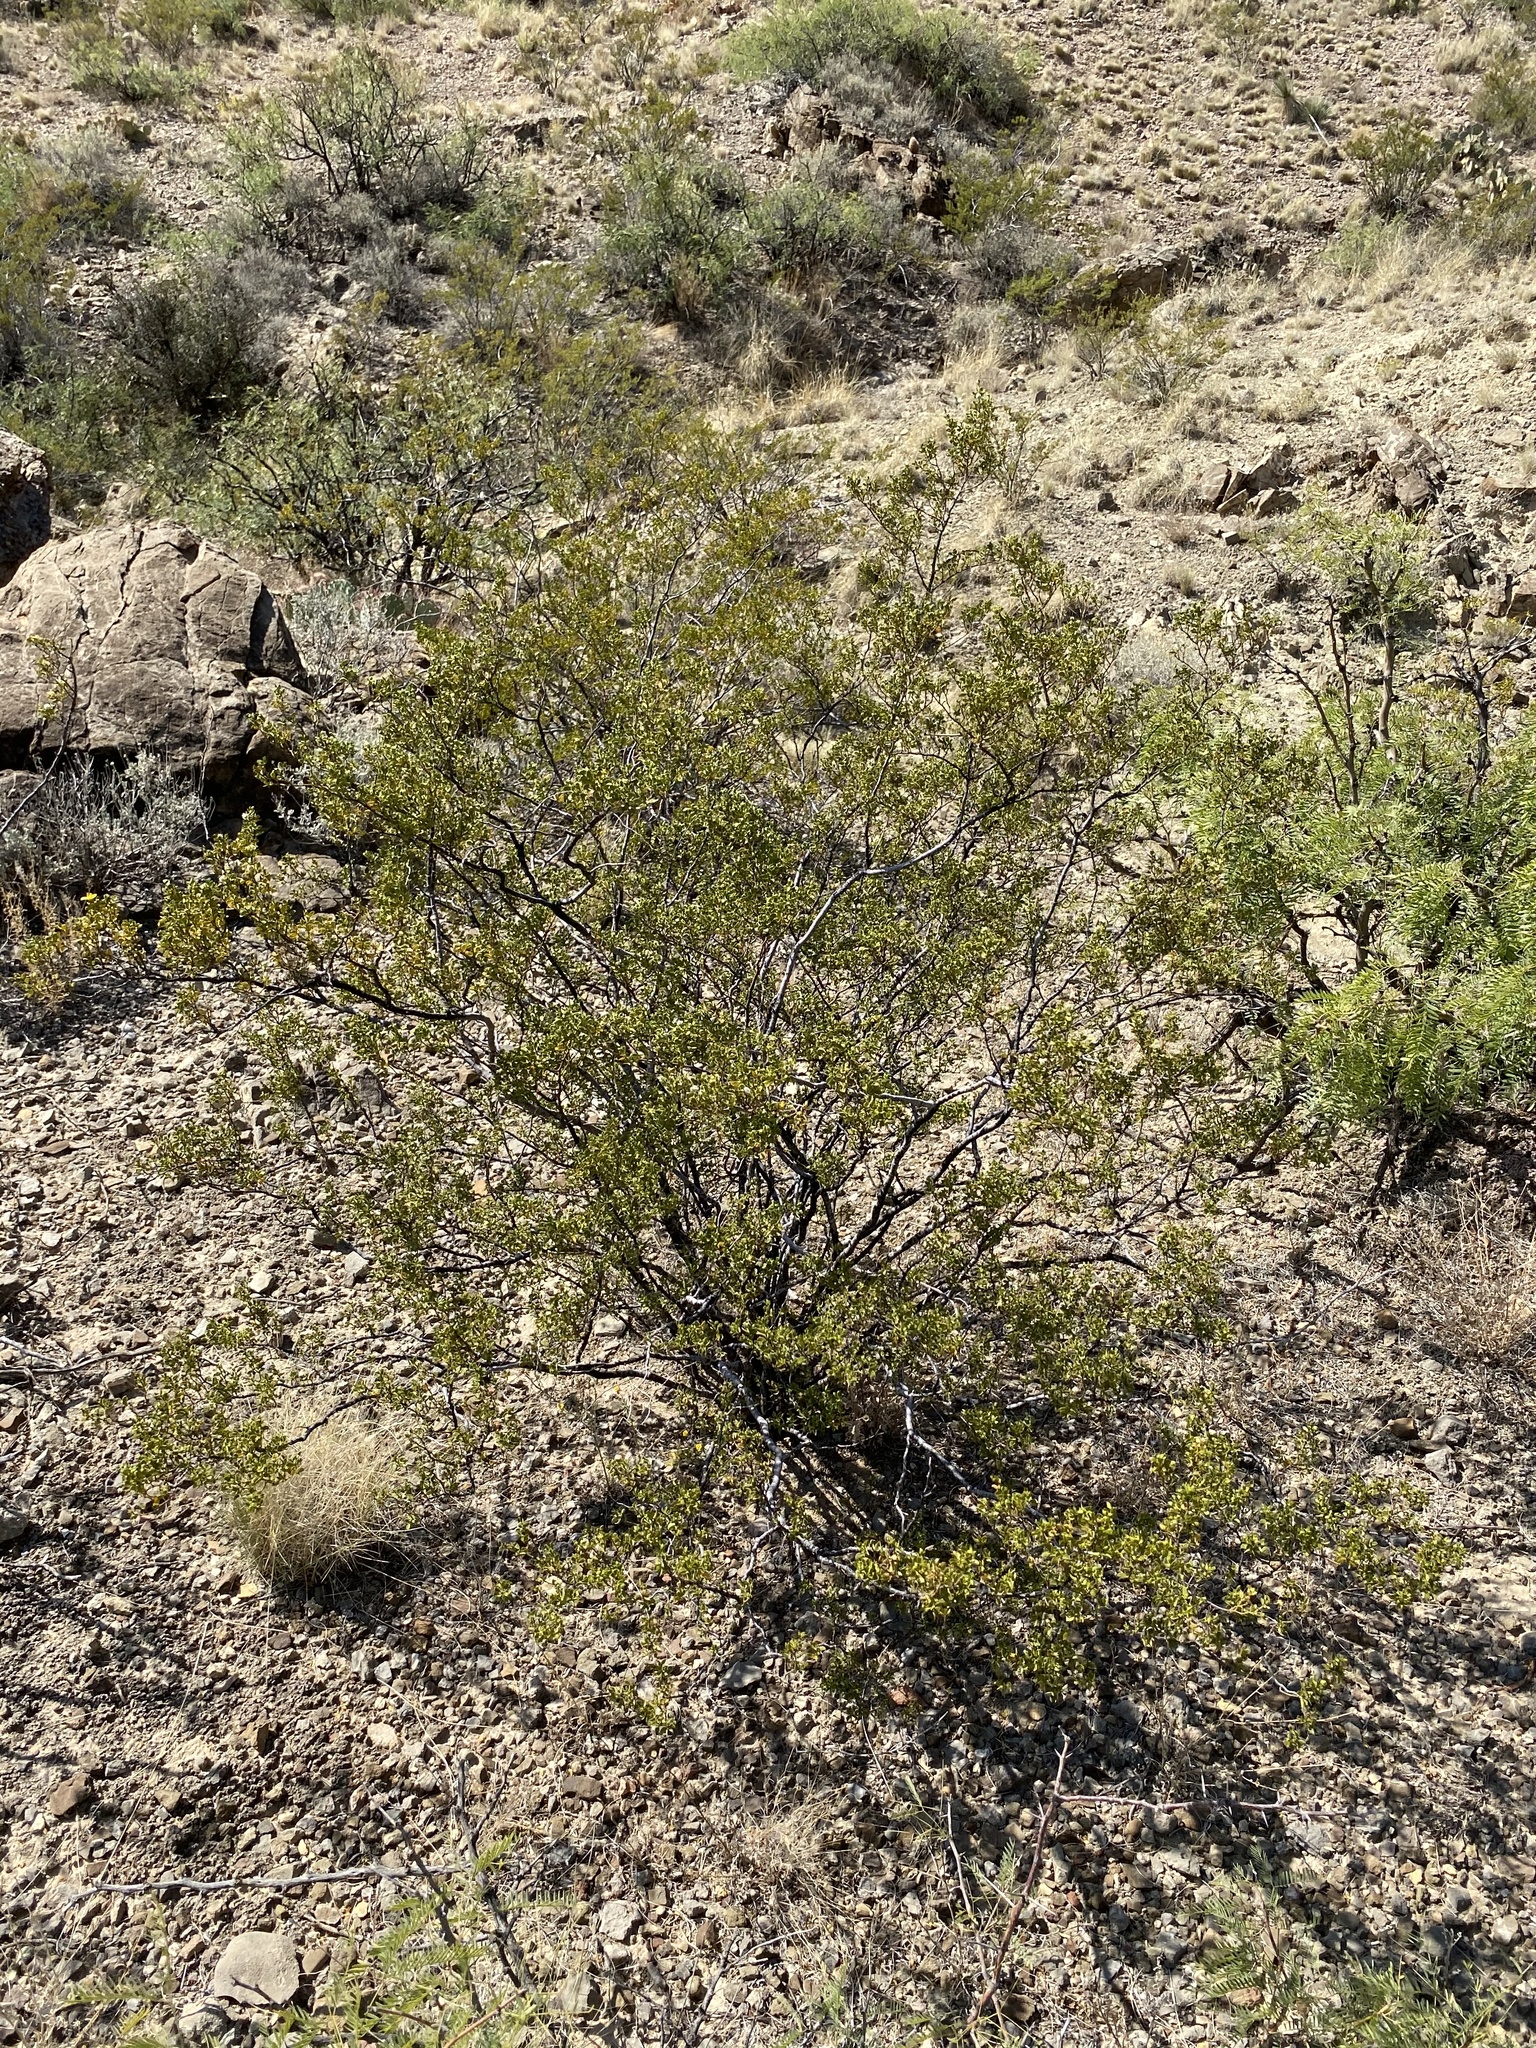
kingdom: Plantae
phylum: Tracheophyta
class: Magnoliopsida
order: Zygophyllales
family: Zygophyllaceae
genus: Larrea
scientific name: Larrea tridentata
